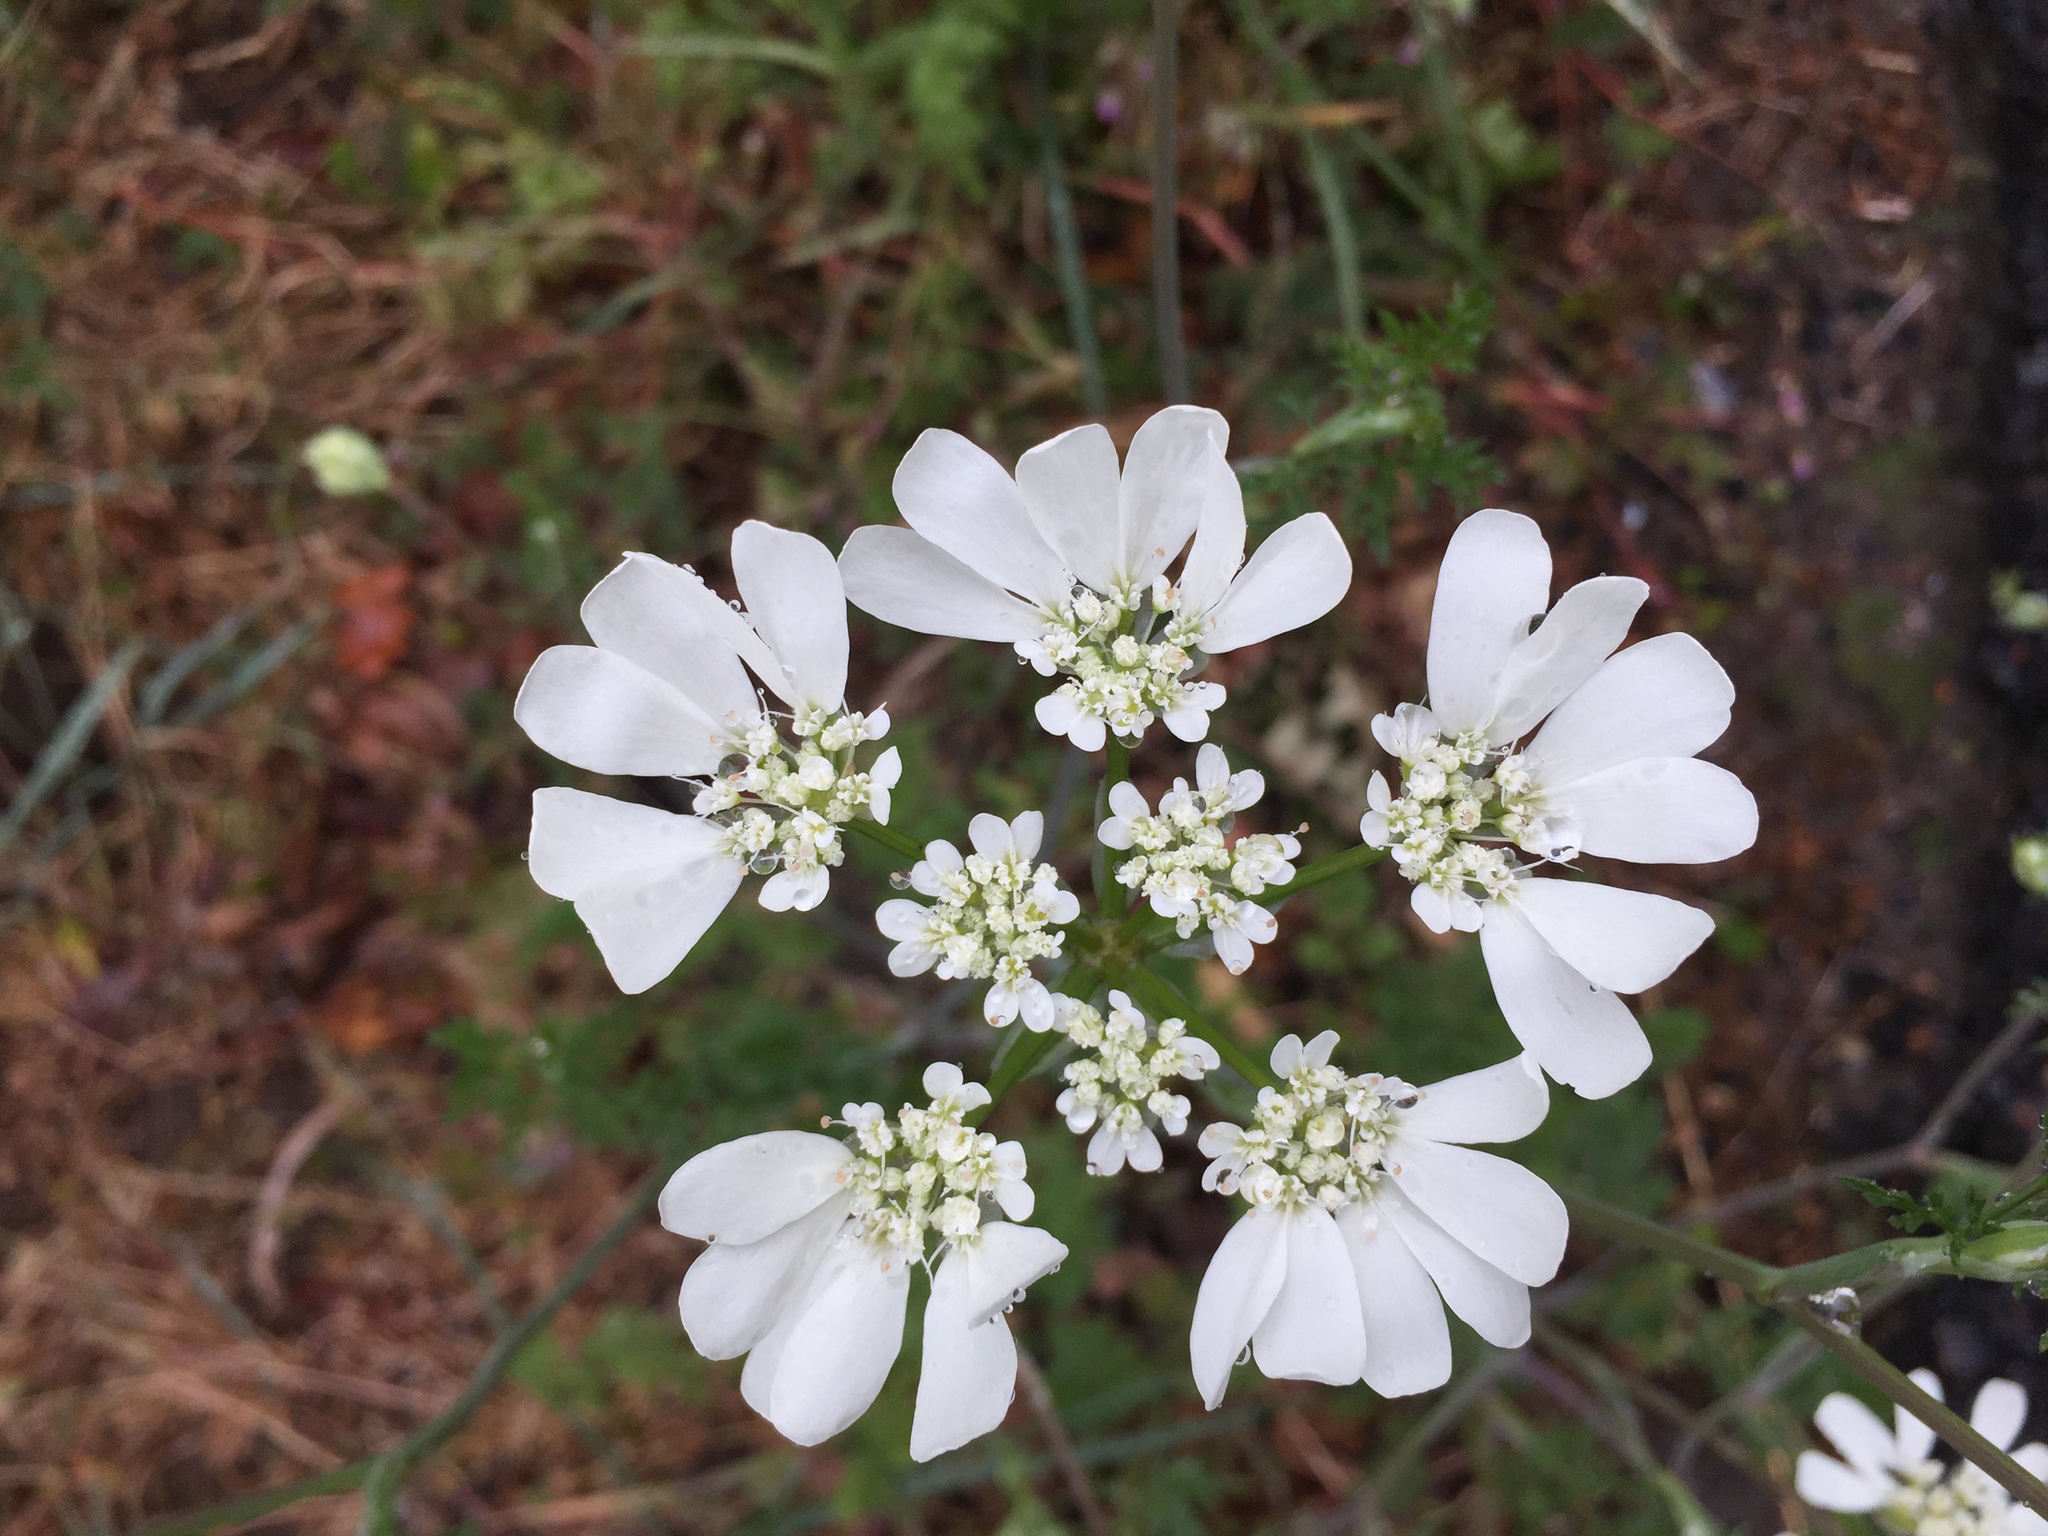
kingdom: Plantae
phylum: Tracheophyta
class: Magnoliopsida
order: Apiales
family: Apiaceae
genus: Orlaya
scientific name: Orlaya grandiflora
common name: White lace flower
